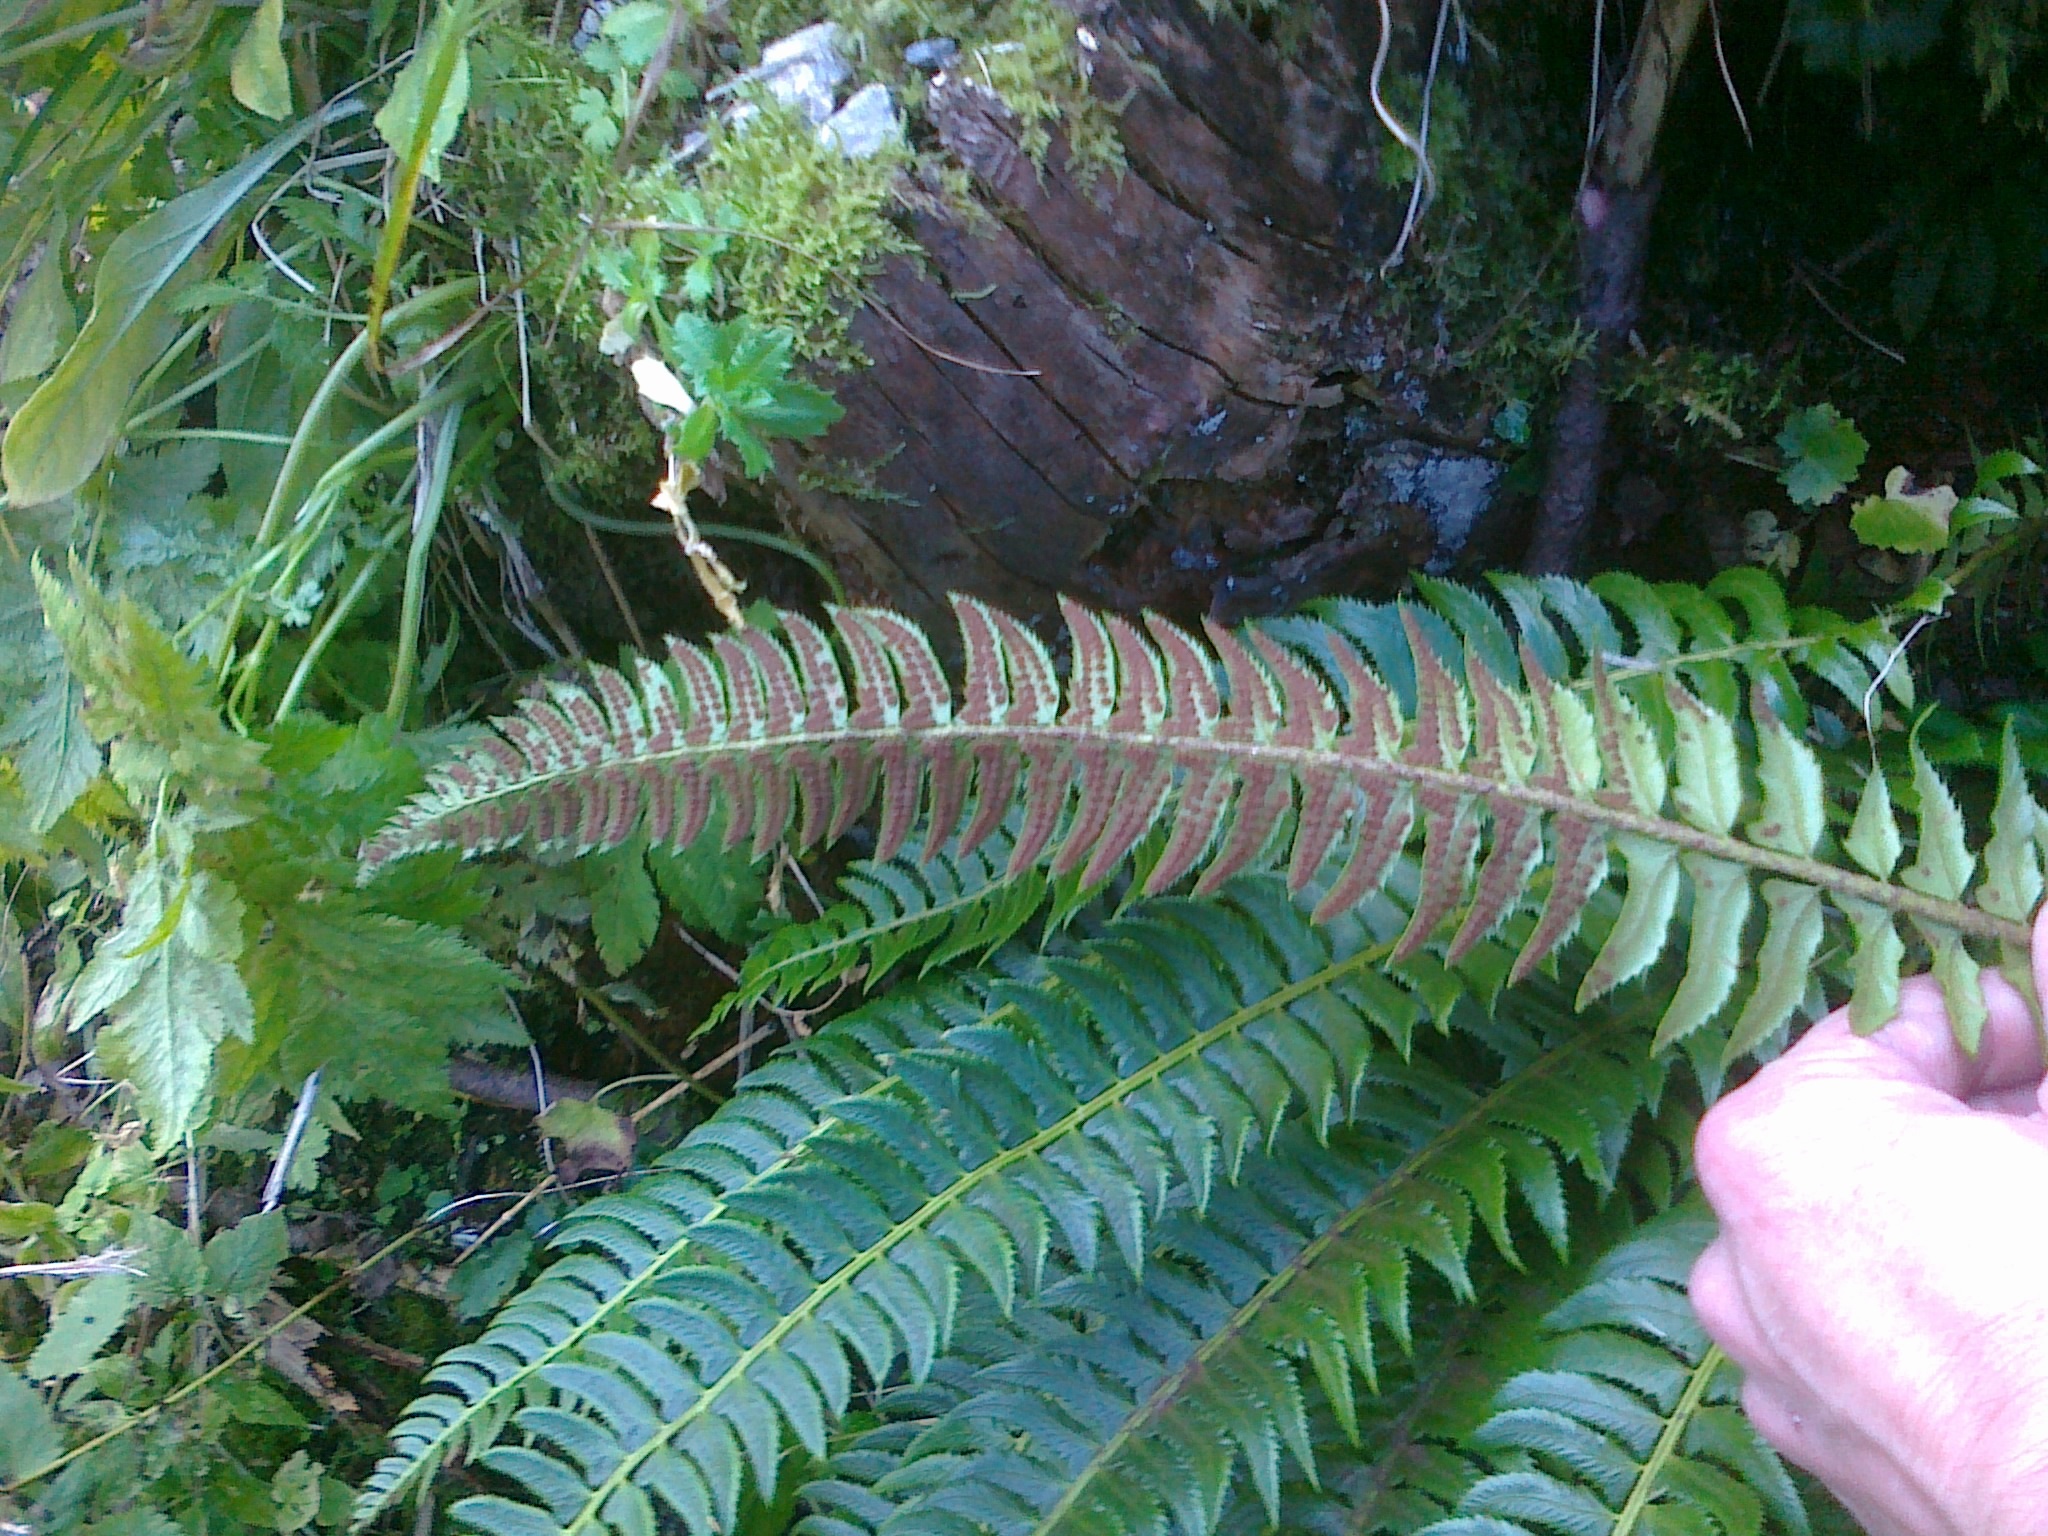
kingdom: Plantae
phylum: Tracheophyta
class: Polypodiopsida
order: Polypodiales
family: Dryopteridaceae
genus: Polystichum
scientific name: Polystichum lonchitis
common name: Holly fern
